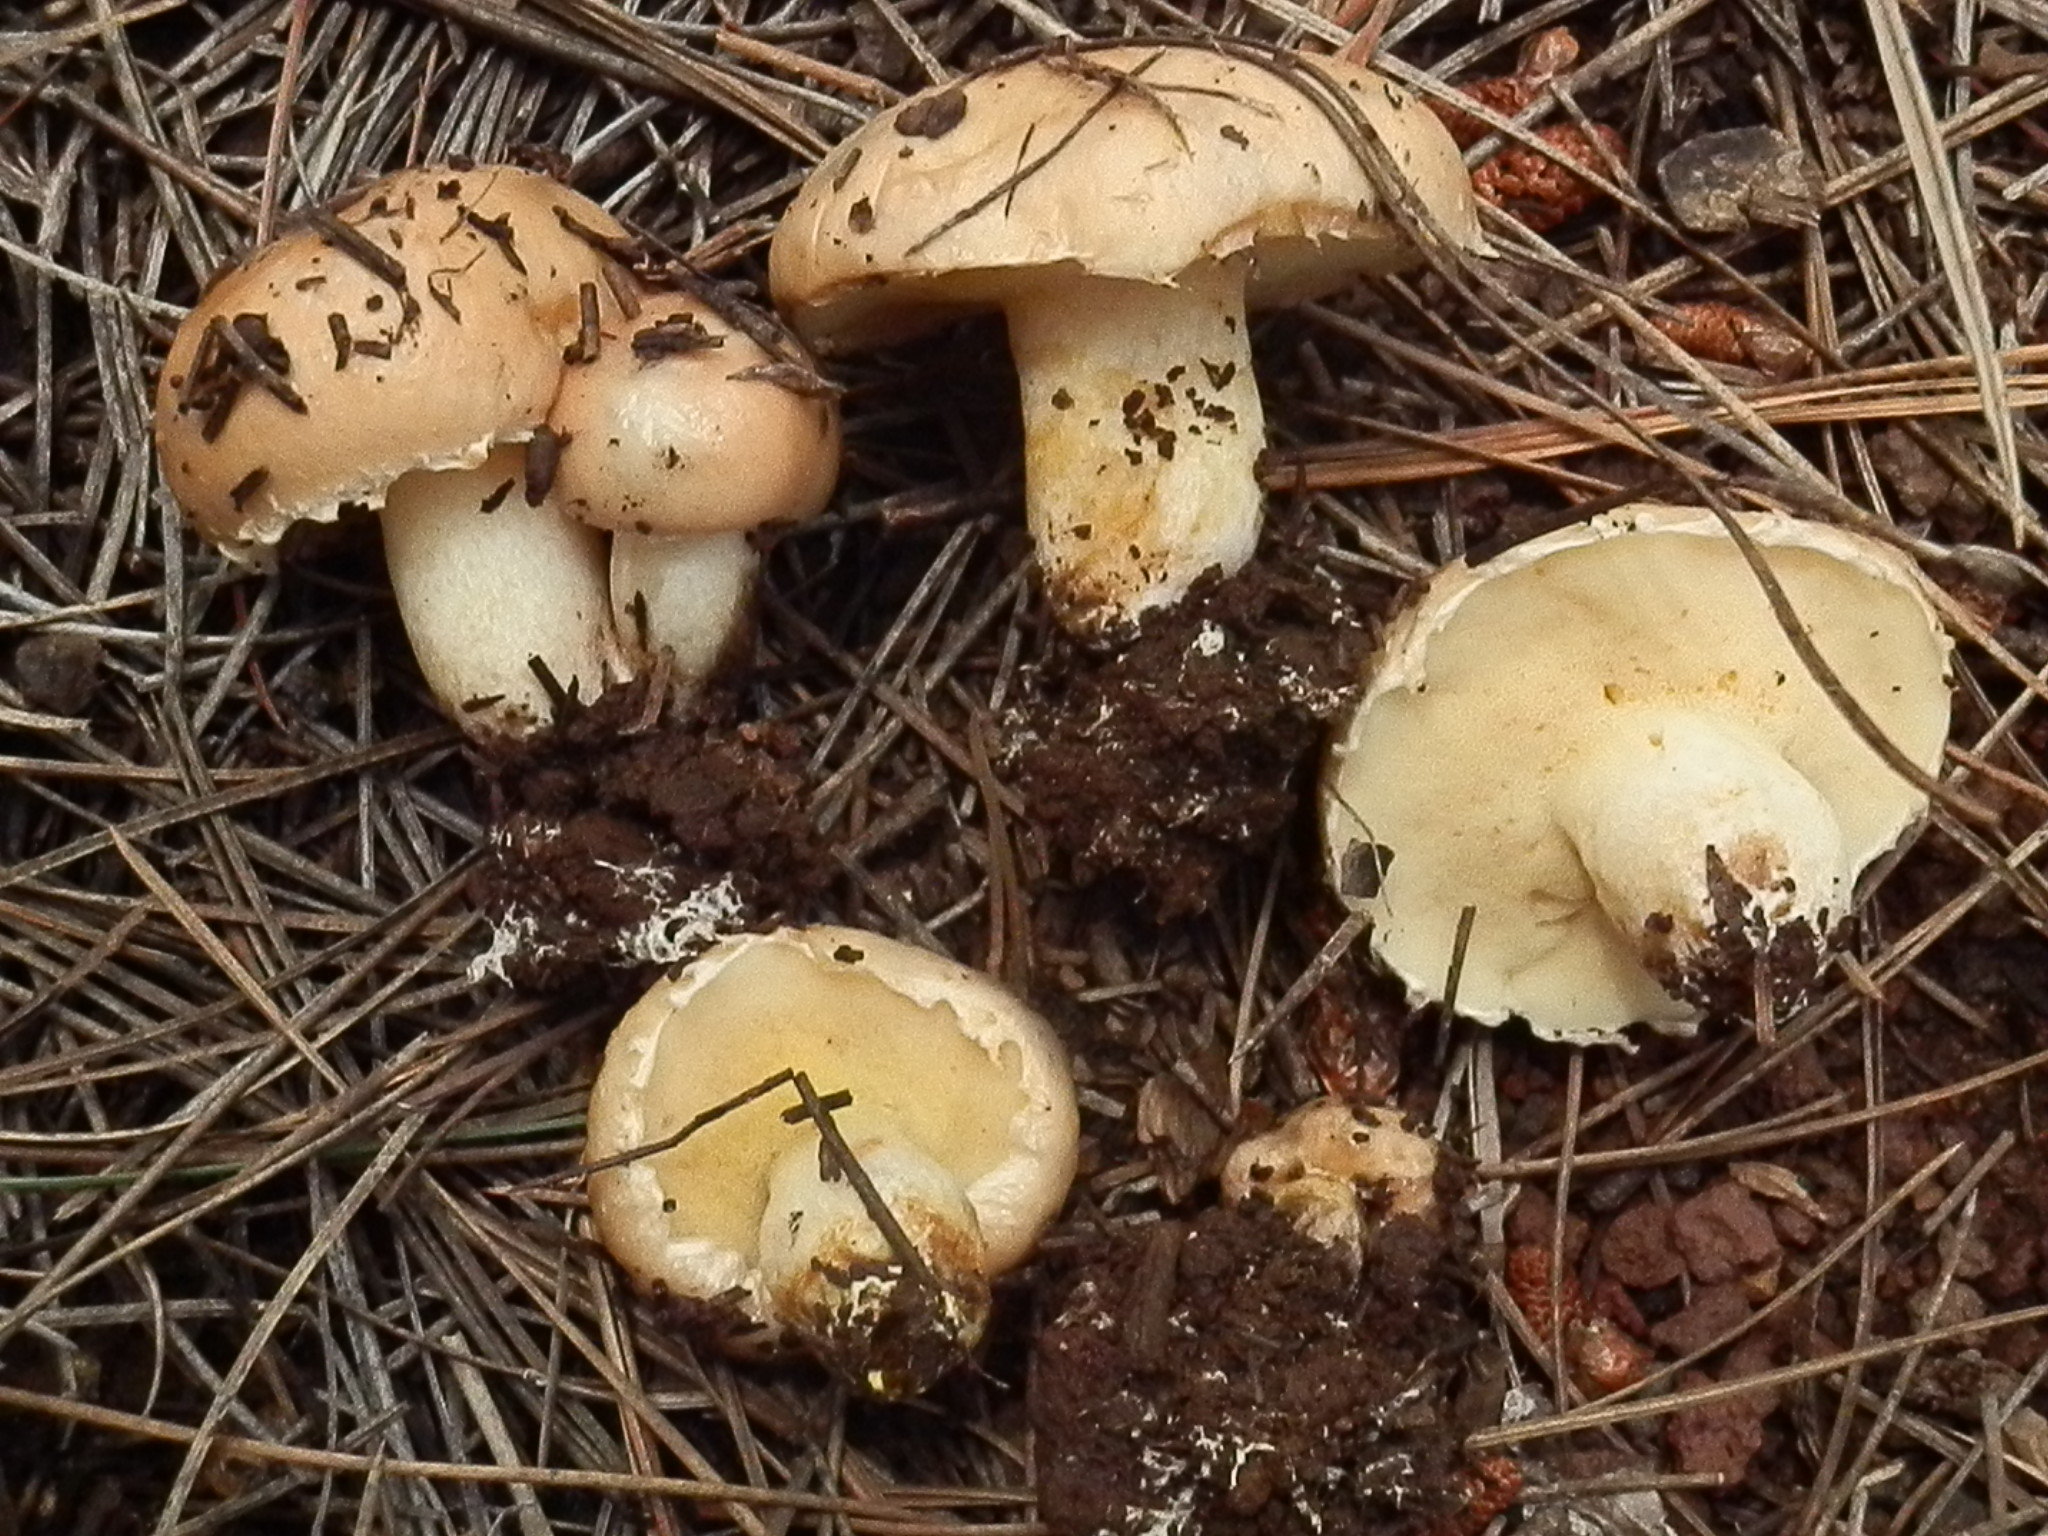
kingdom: Fungi
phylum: Basidiomycota
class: Agaricomycetes
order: Boletales
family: Suillaceae
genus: Suillus
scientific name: Suillus occidentalis
